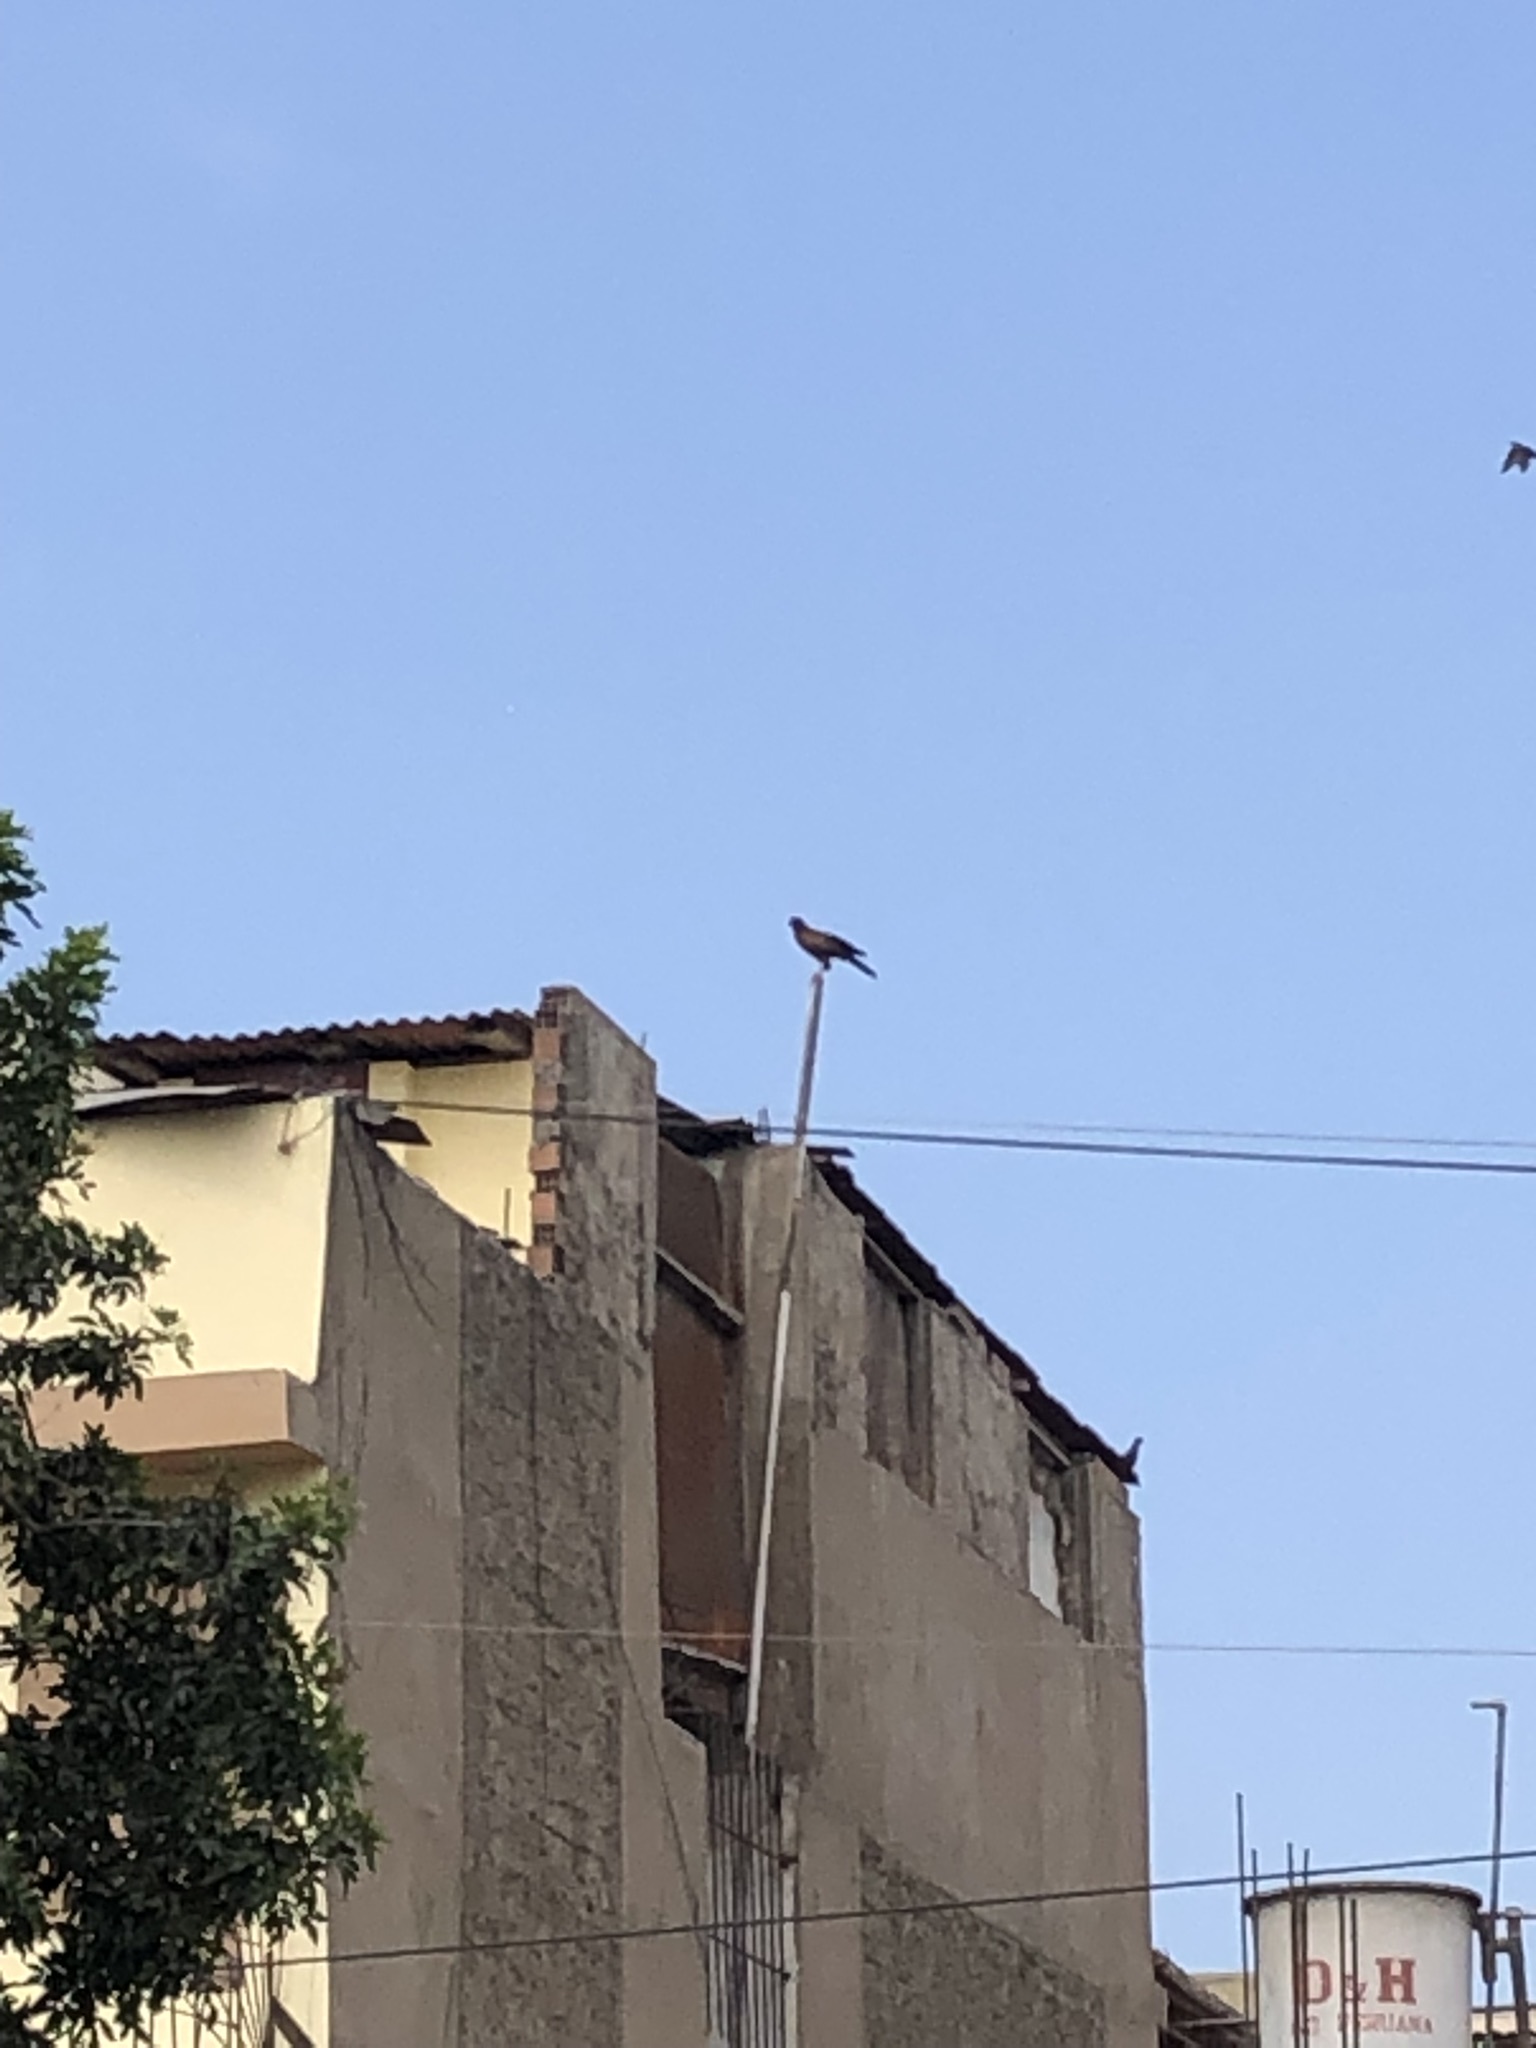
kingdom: Animalia
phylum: Chordata
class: Aves
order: Accipitriformes
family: Accipitridae
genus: Parabuteo
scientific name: Parabuteo unicinctus
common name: Harris's hawk
